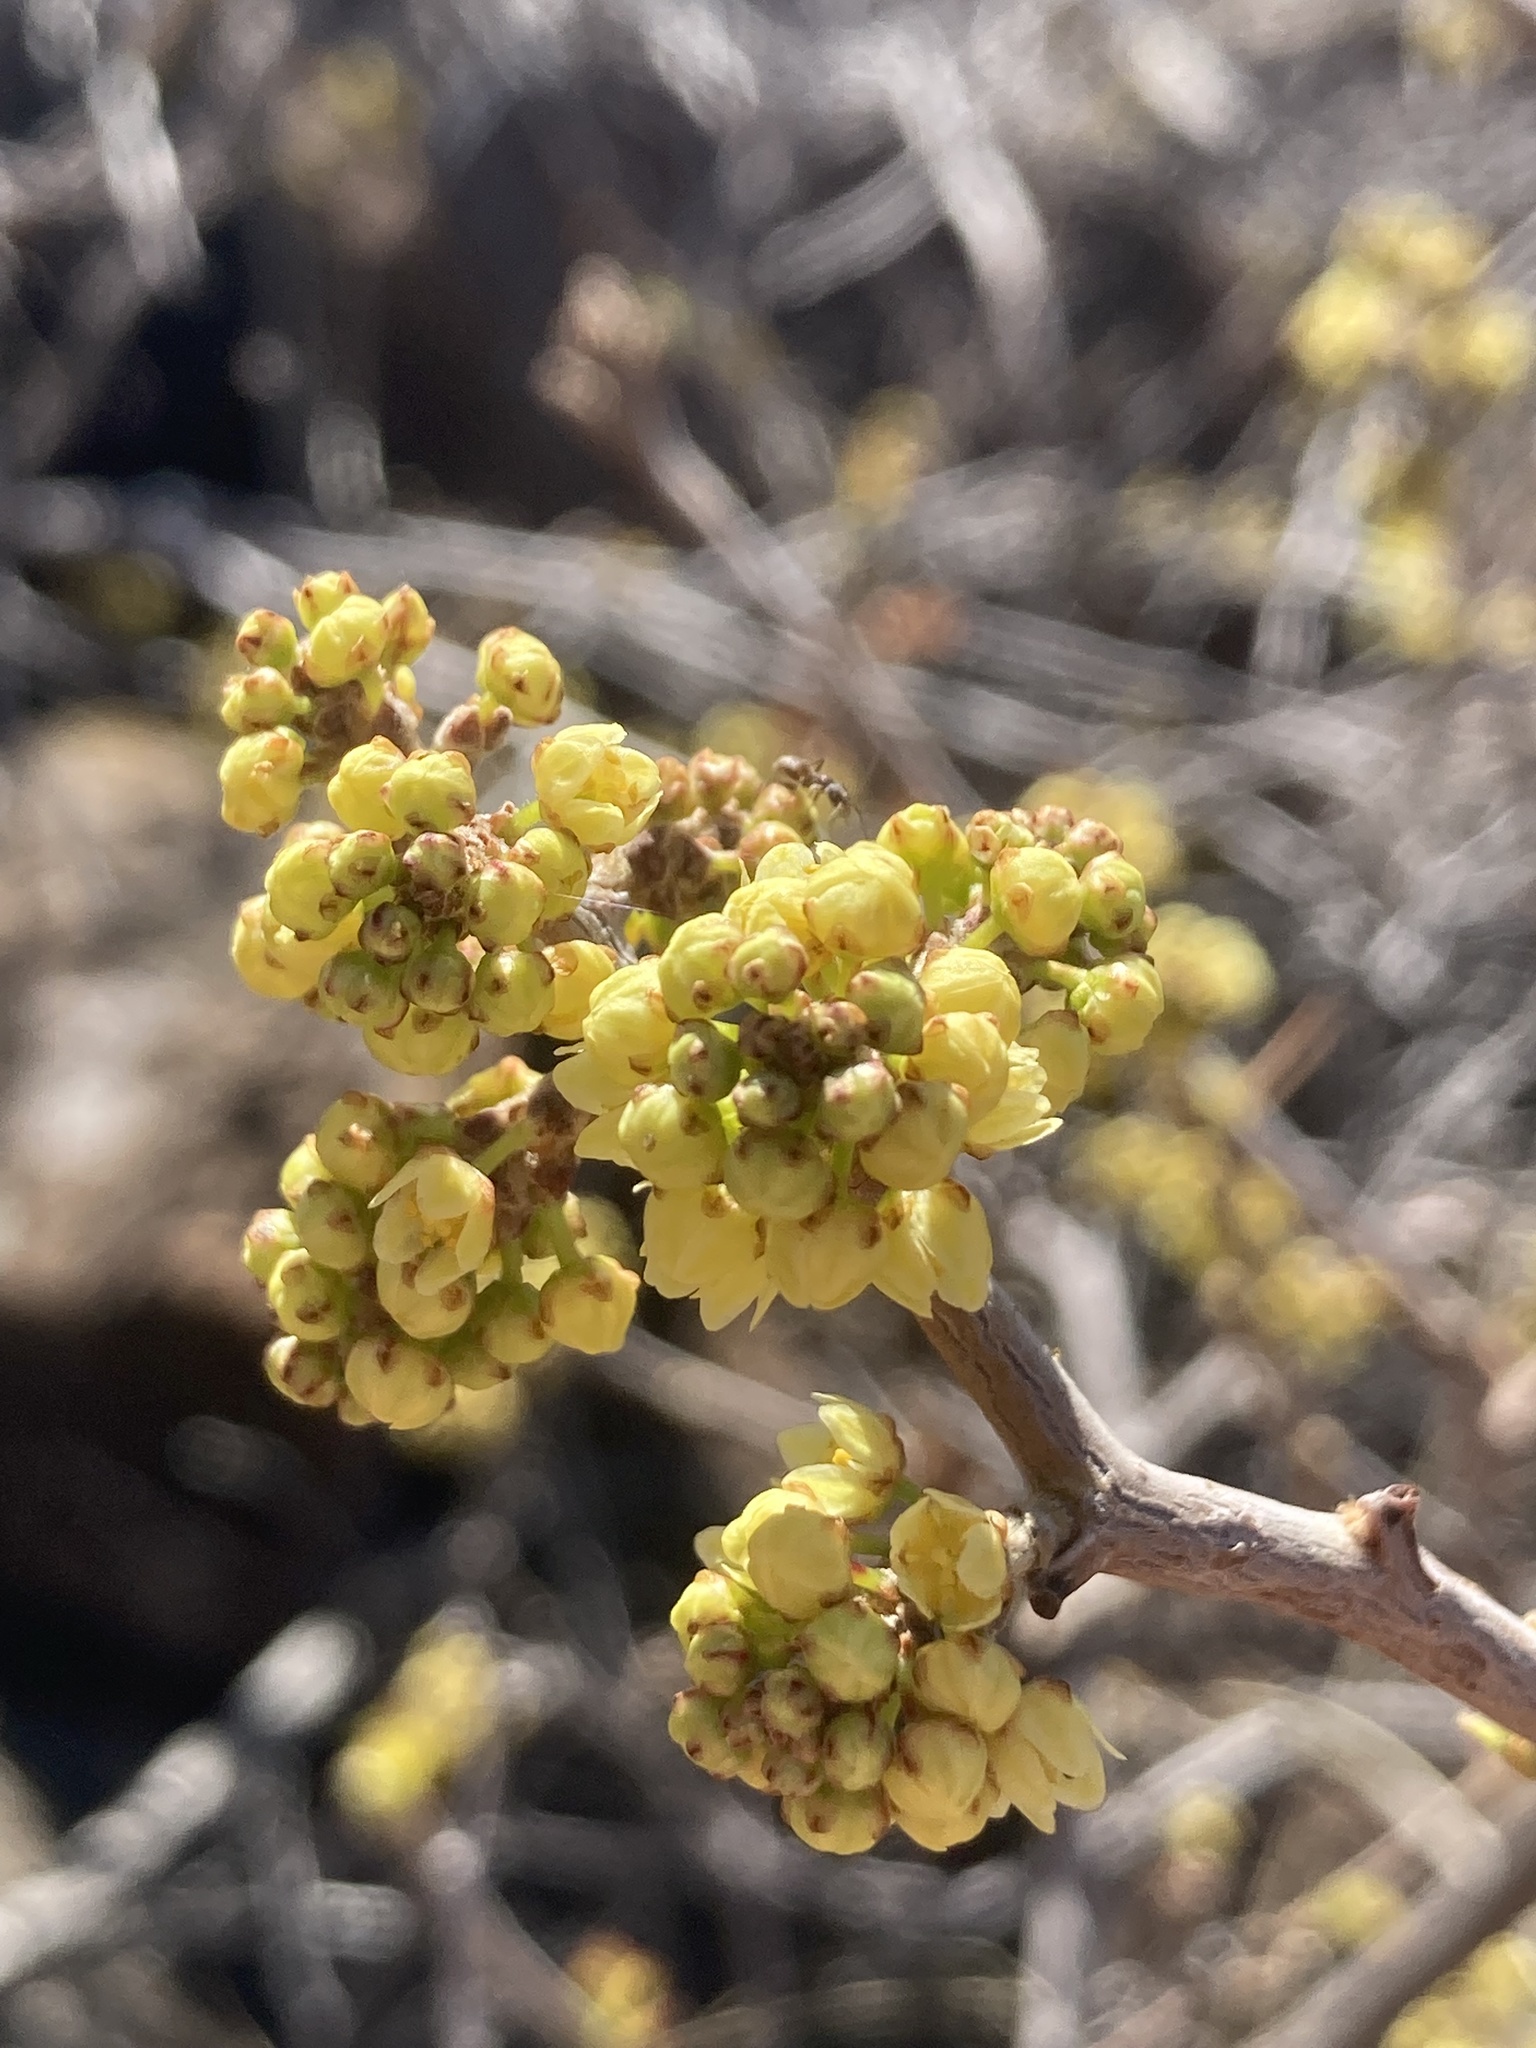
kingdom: Plantae
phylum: Tracheophyta
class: Magnoliopsida
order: Sapindales
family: Anacardiaceae
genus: Rhus
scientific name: Rhus trilobata
